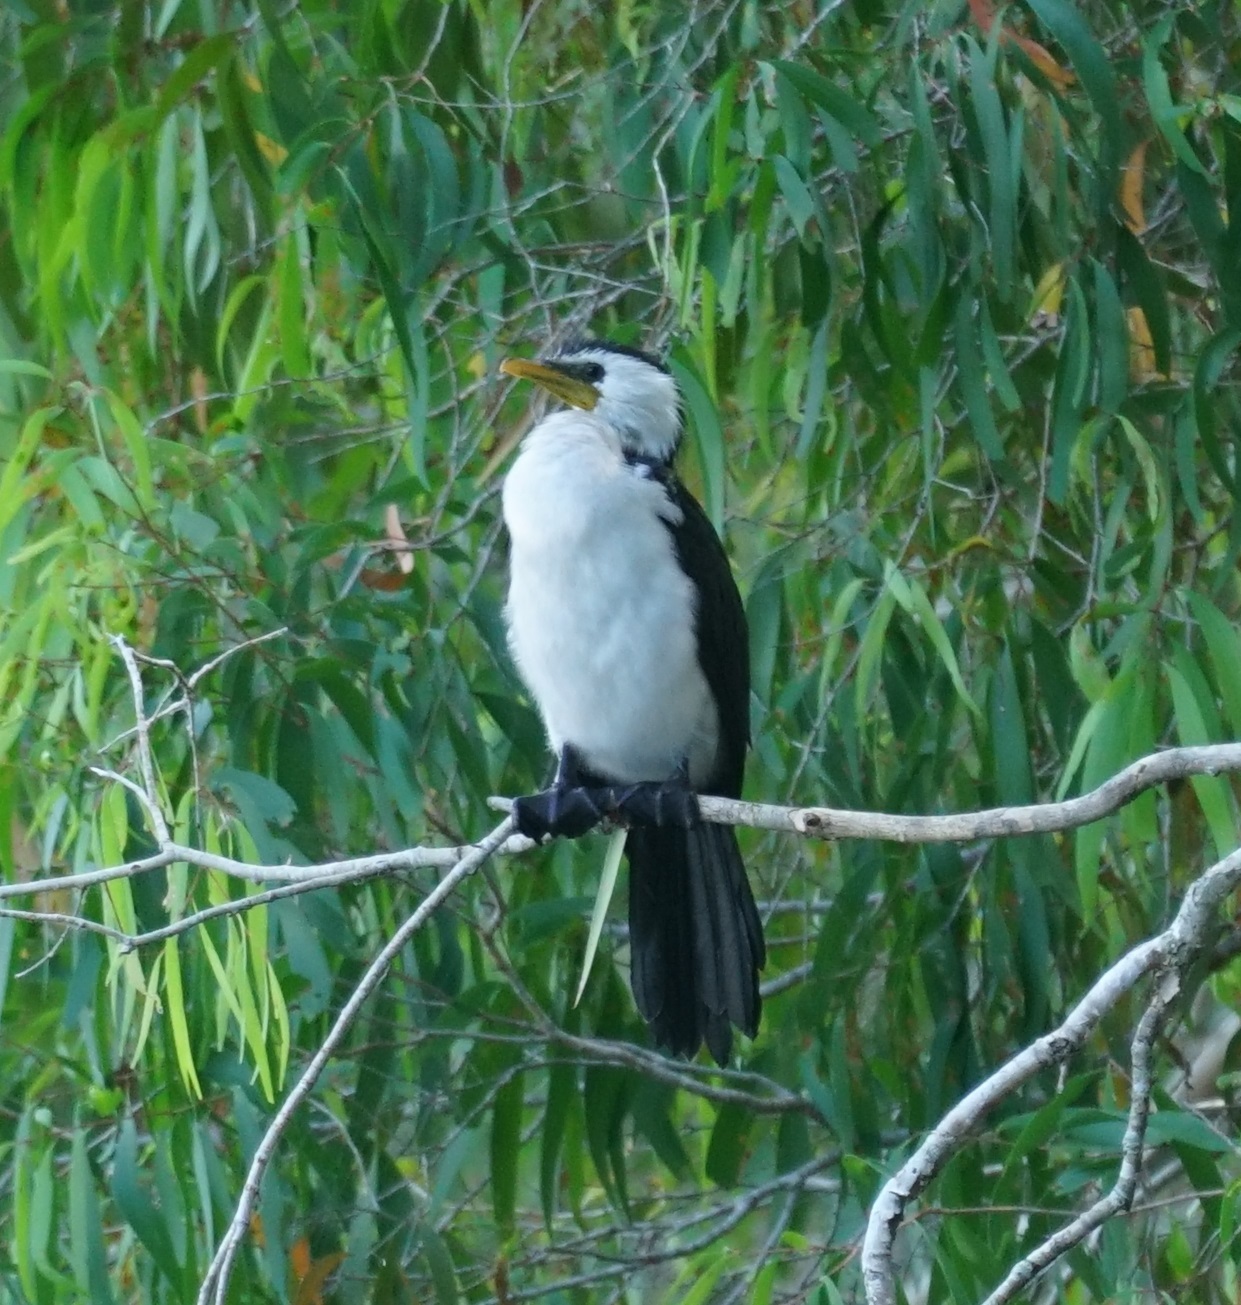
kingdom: Animalia
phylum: Chordata
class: Aves
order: Suliformes
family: Phalacrocoracidae
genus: Microcarbo
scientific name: Microcarbo melanoleucos
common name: Little pied cormorant
